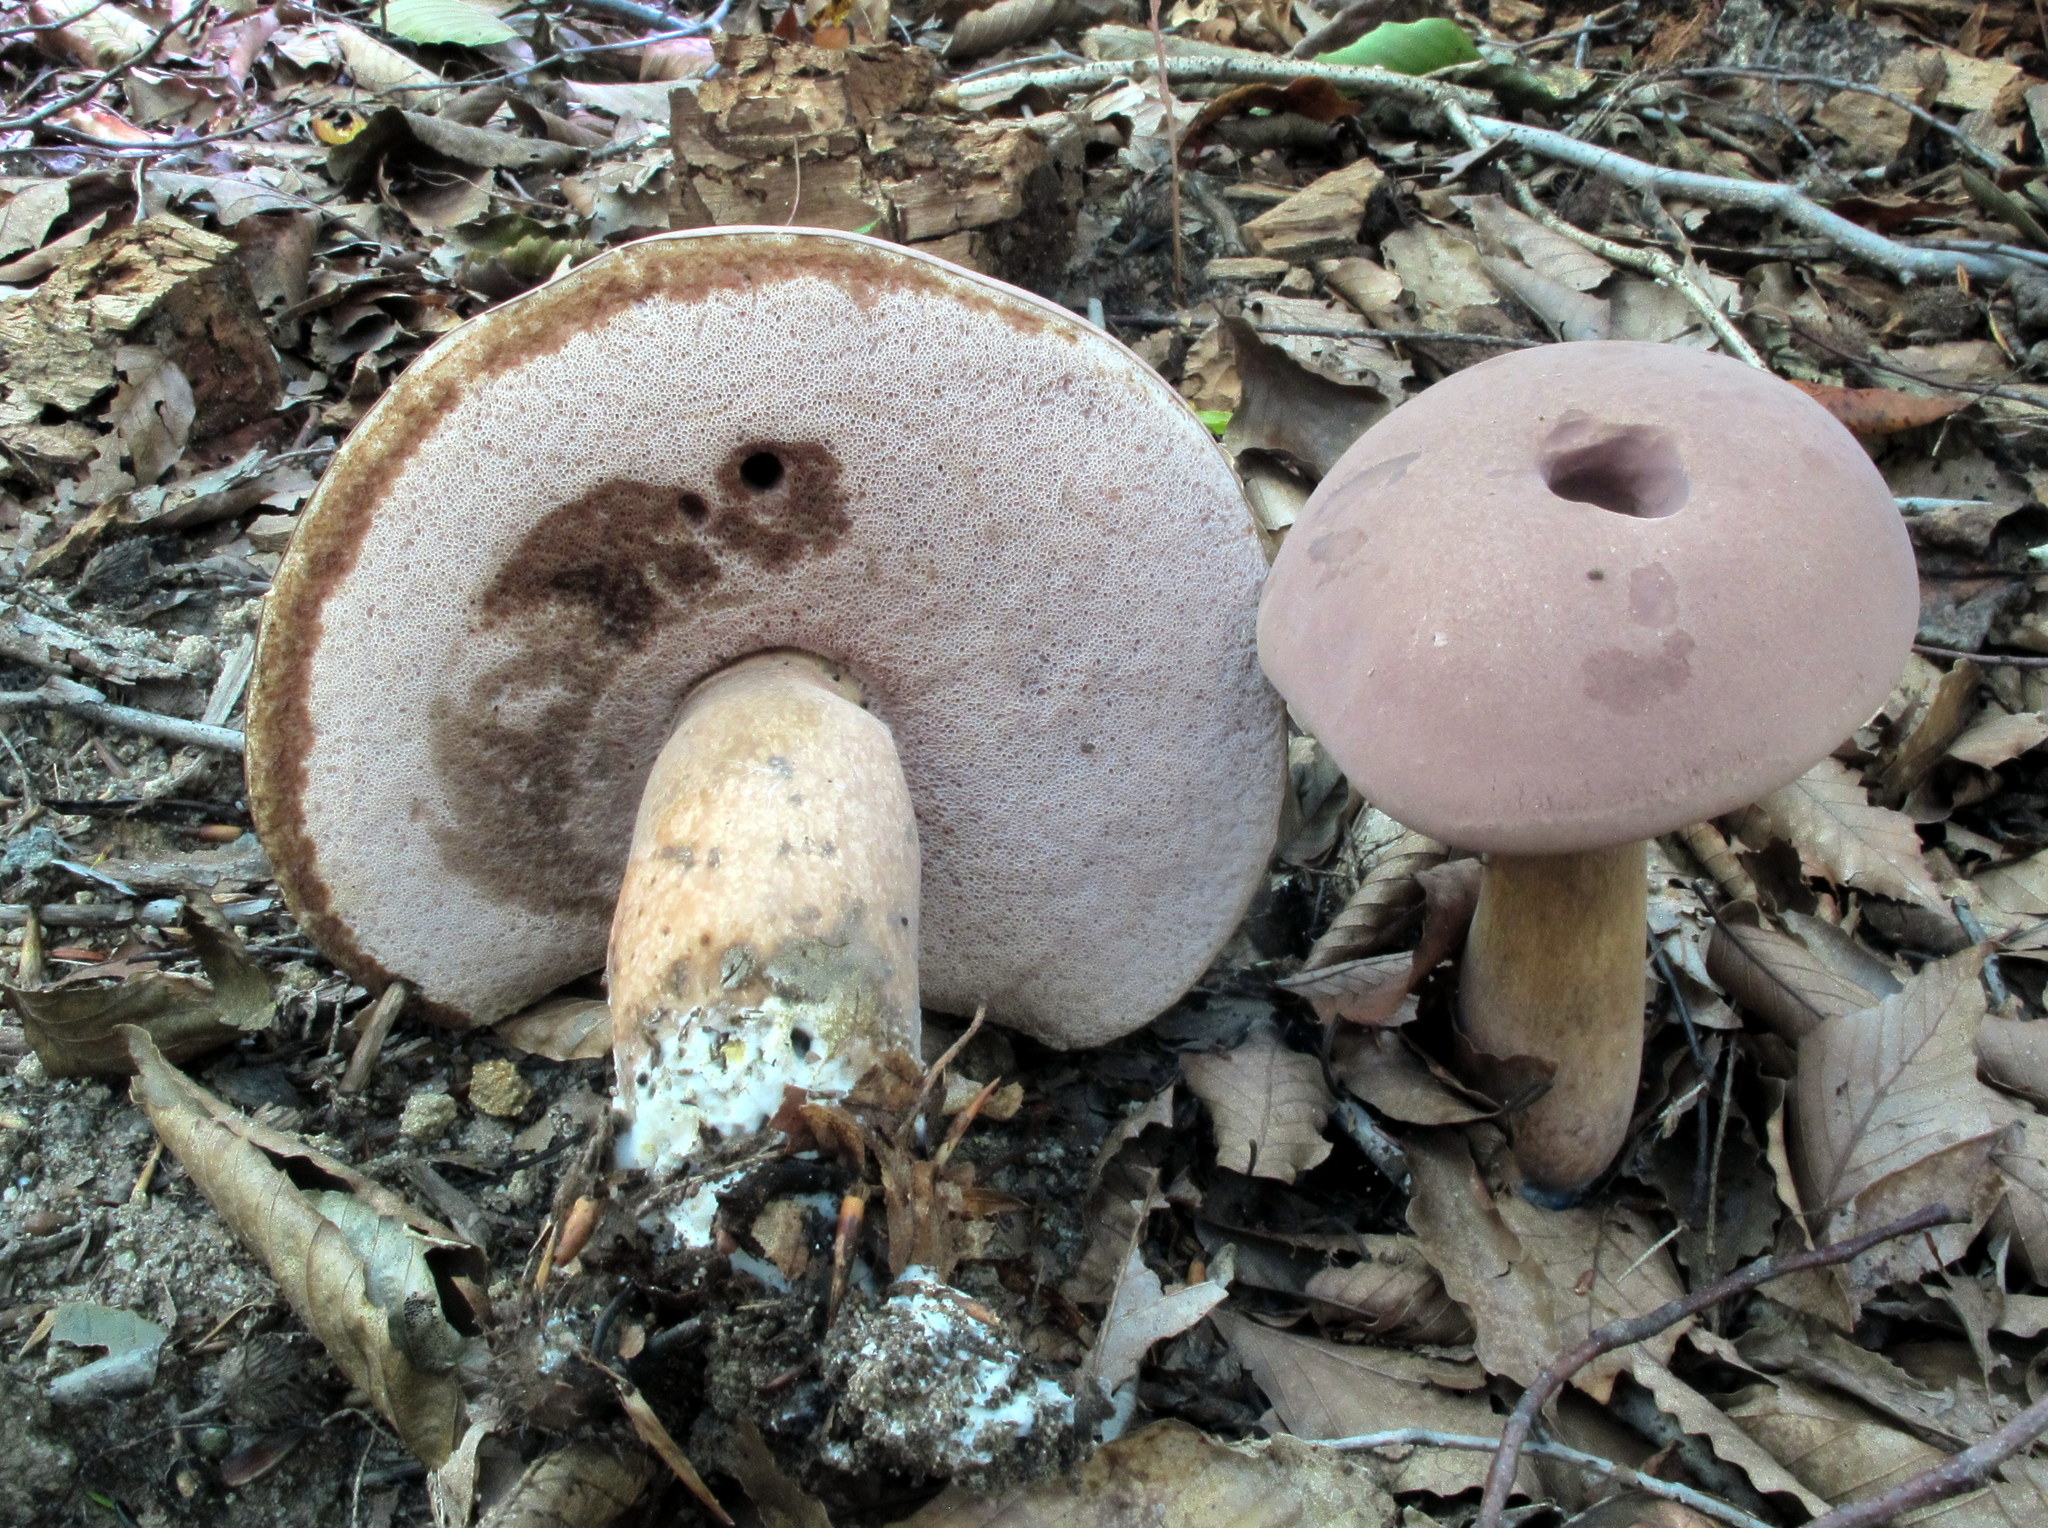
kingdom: Fungi
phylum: Basidiomycota
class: Agaricomycetes
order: Boletales
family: Boletaceae
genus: Tylopilus
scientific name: Tylopilus rubrobrunneus
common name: Reddish brown bitter bolete
